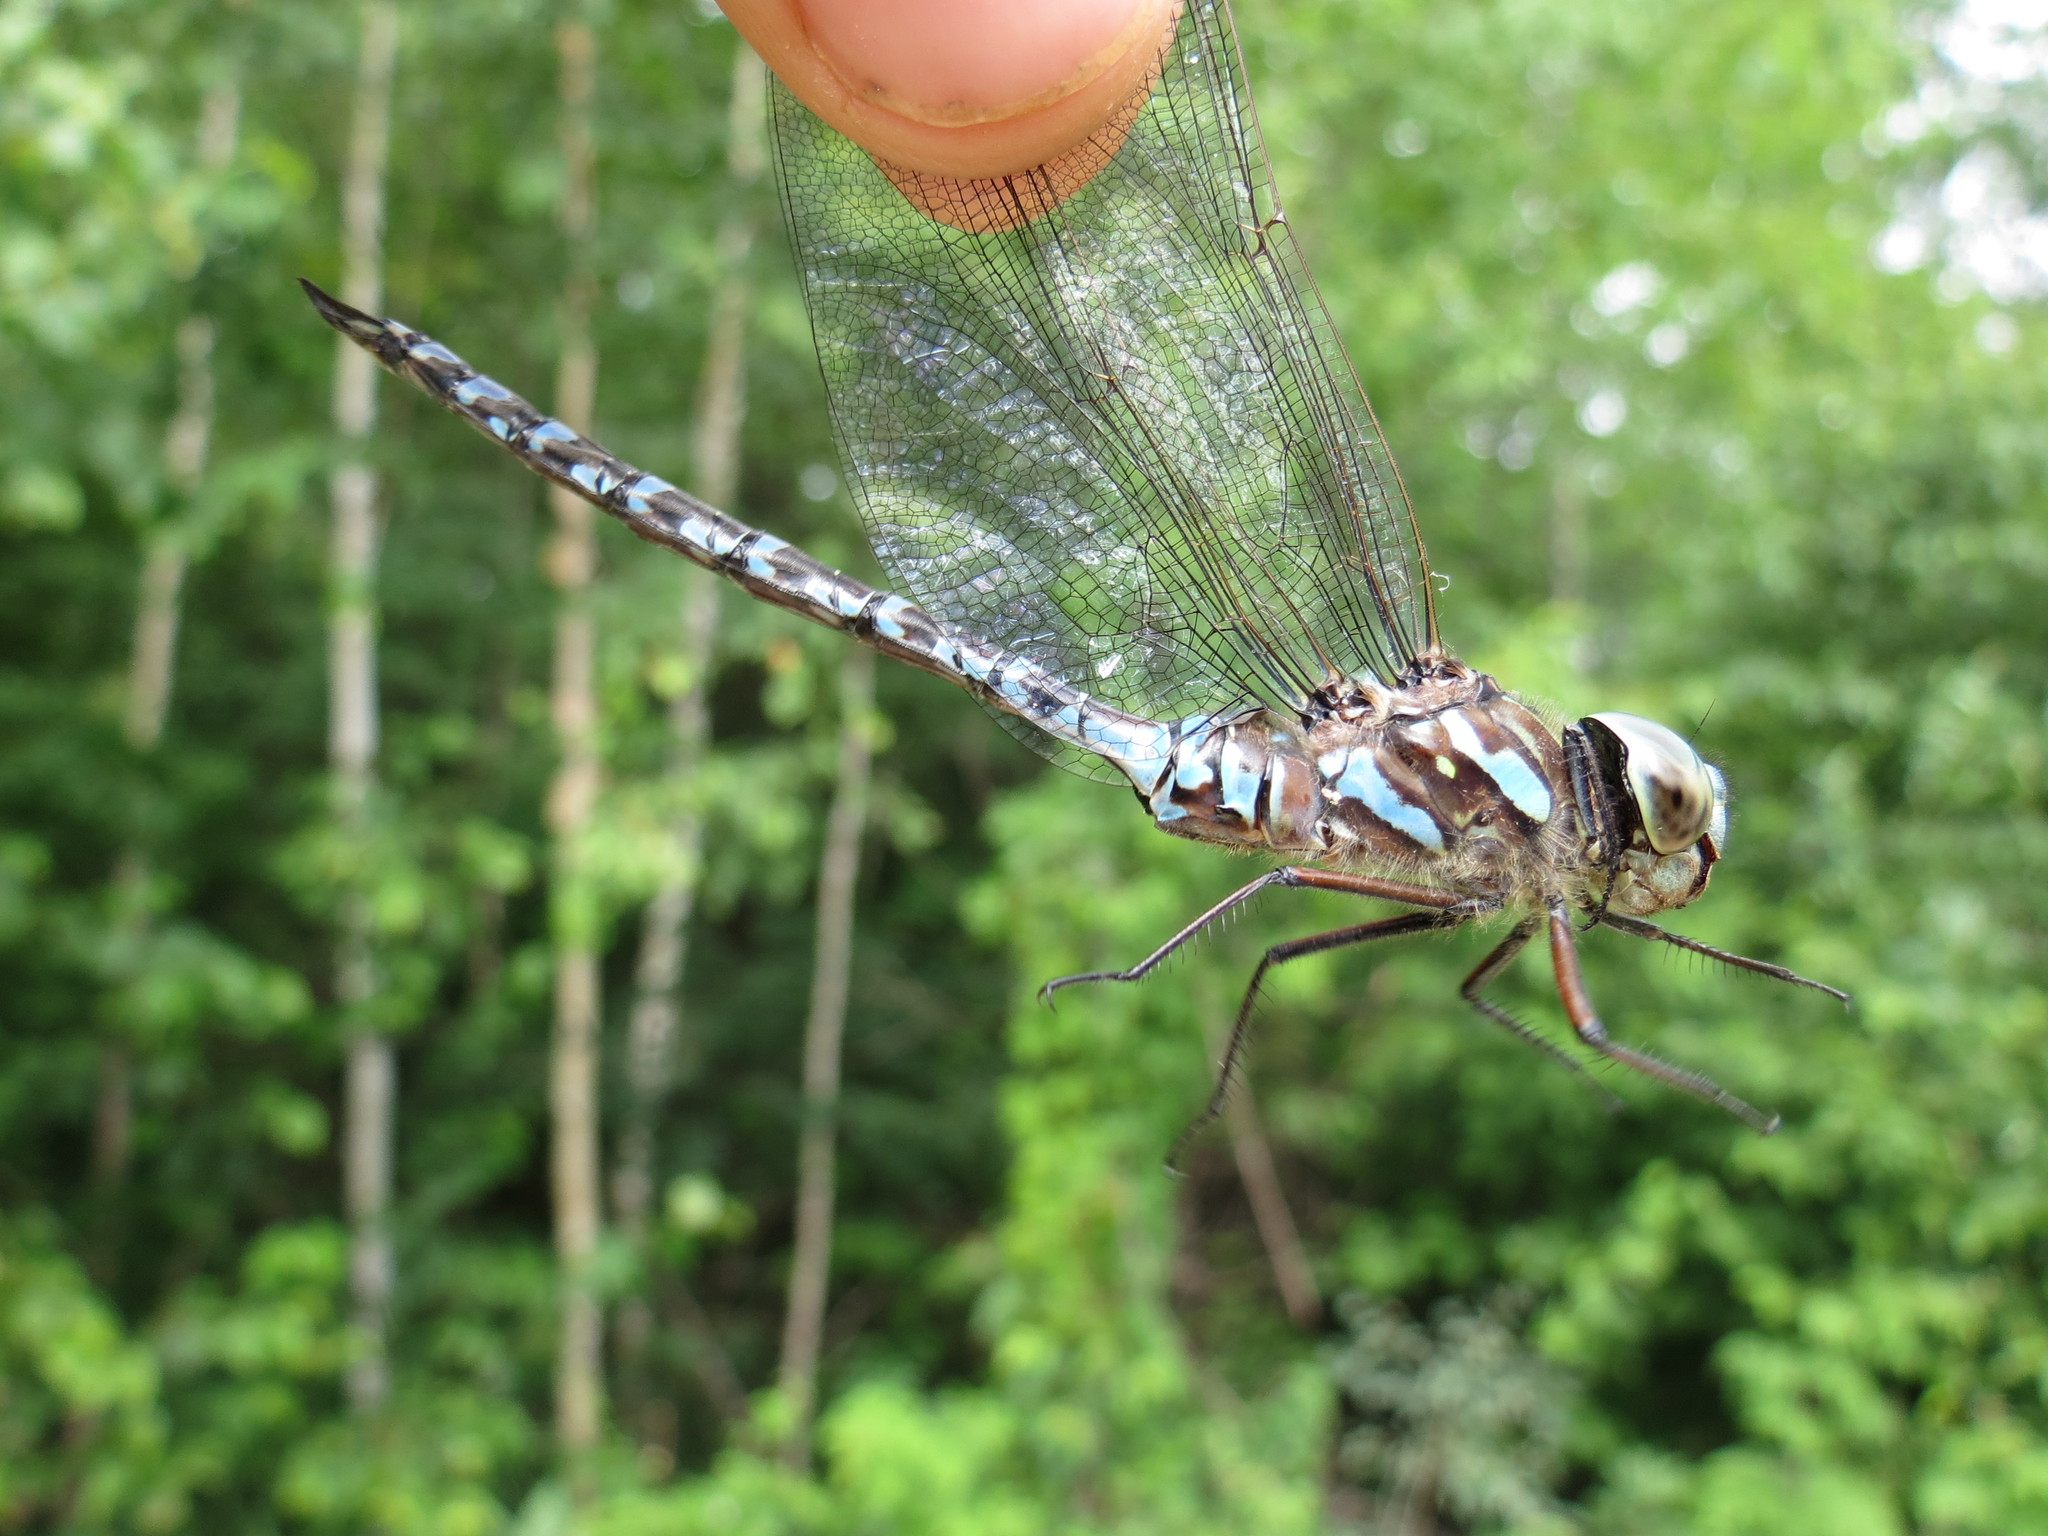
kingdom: Animalia
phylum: Arthropoda
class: Insecta
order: Odonata
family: Aeshnidae
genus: Aeshna
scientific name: Aeshna canadensis
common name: Canada darner
